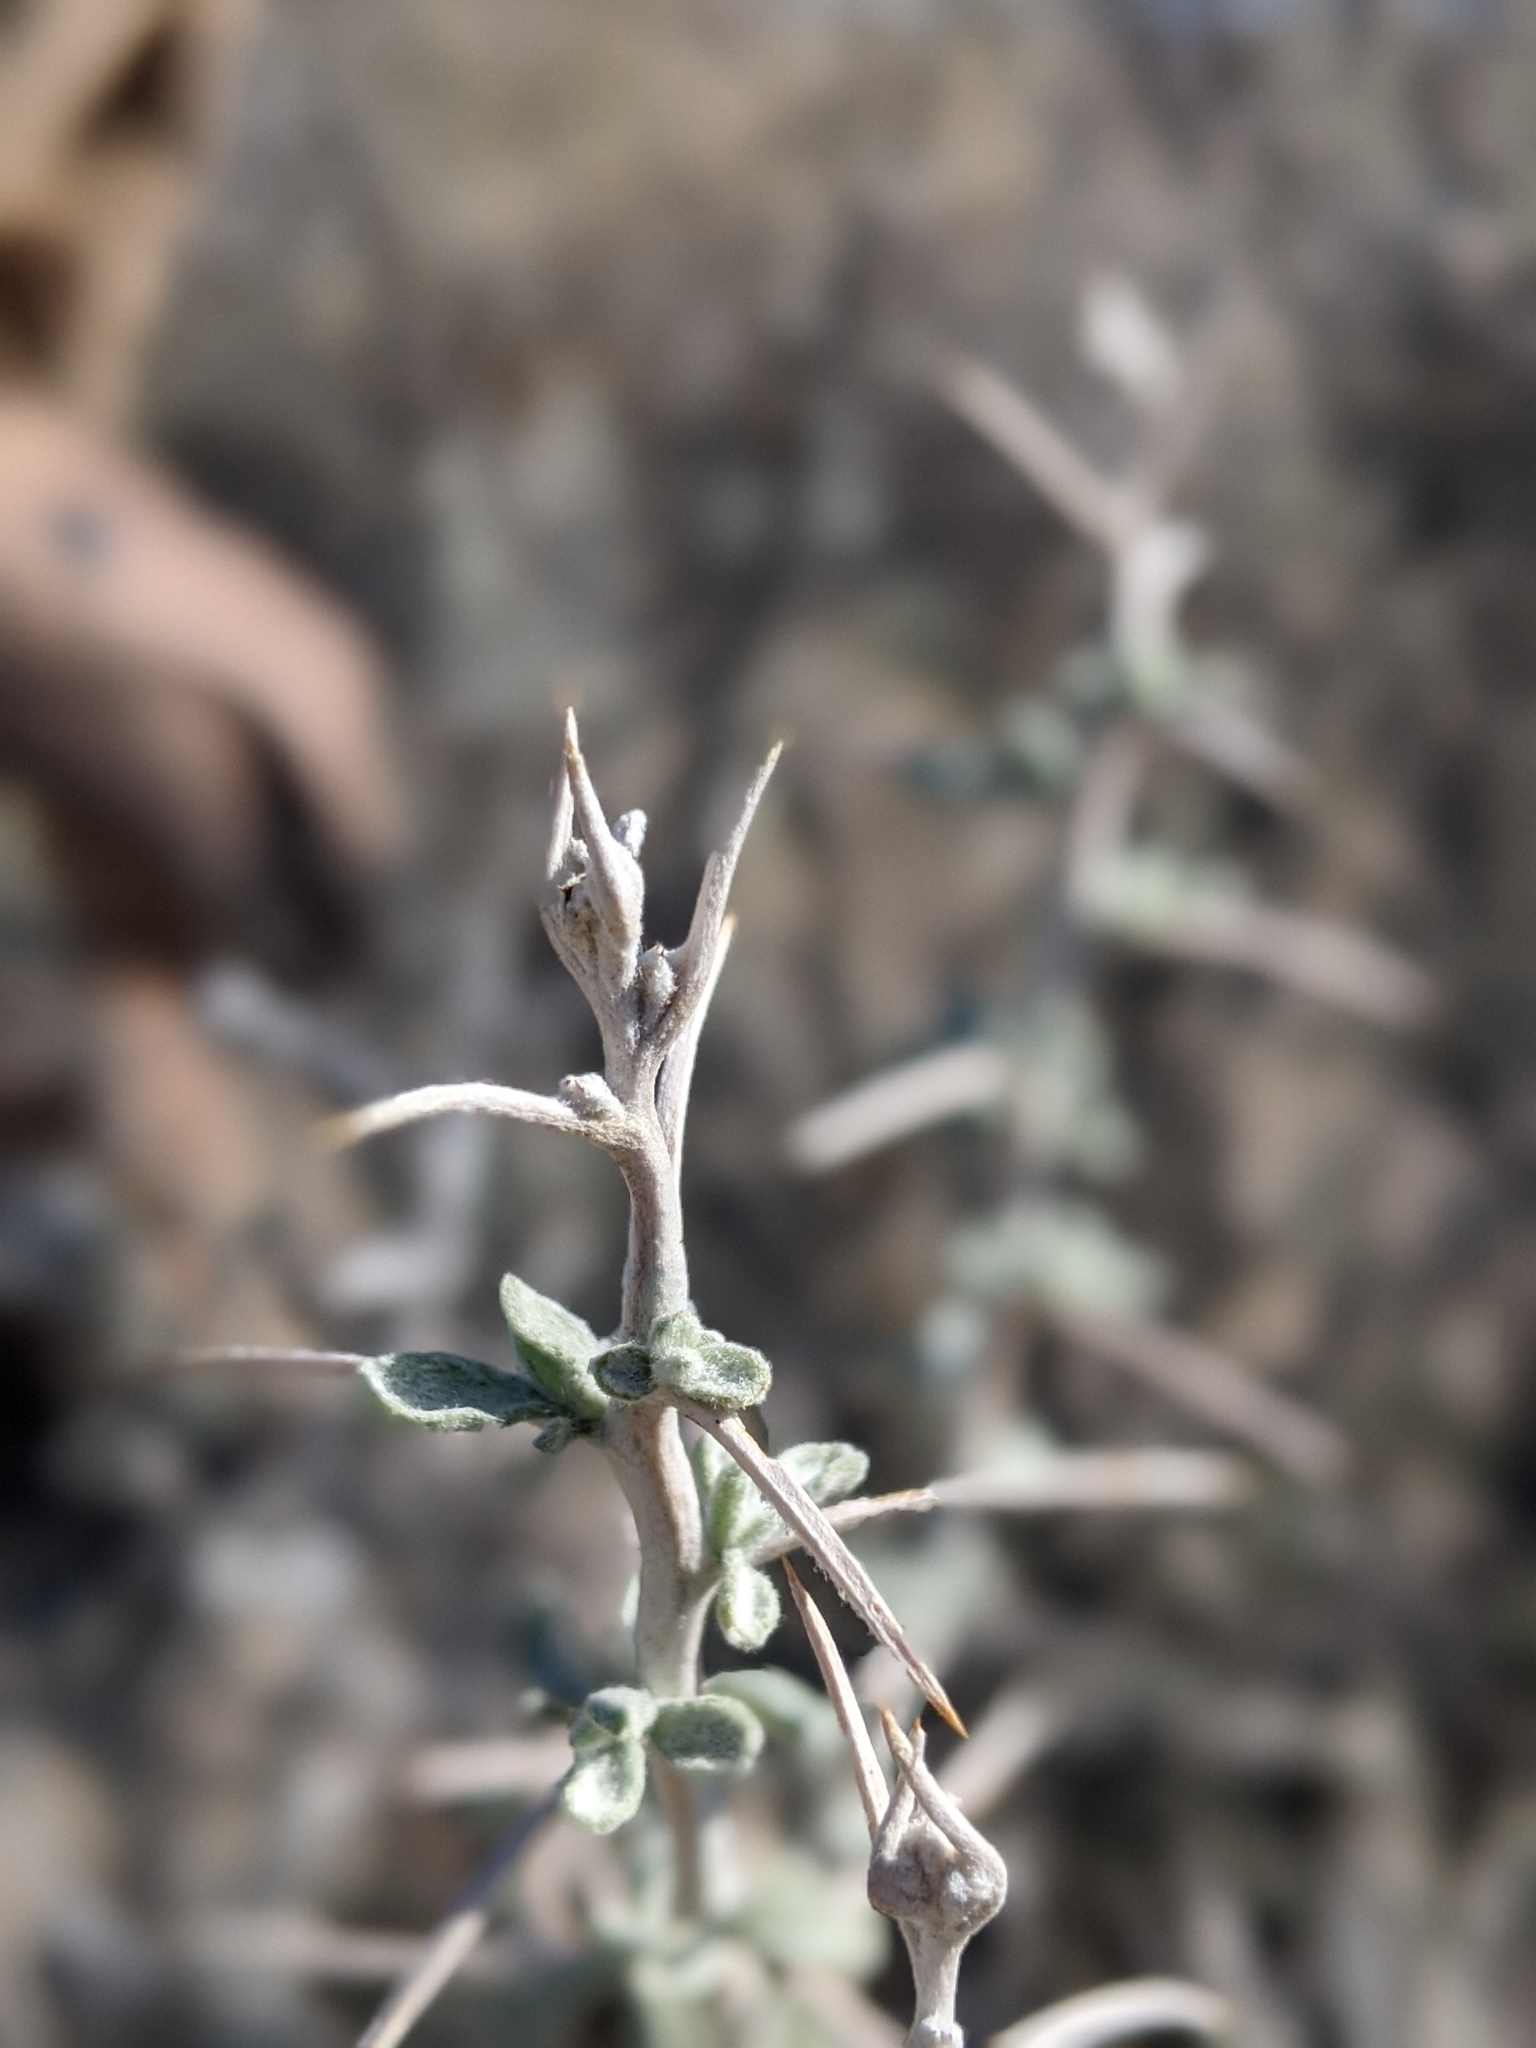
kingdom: Plantae
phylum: Tracheophyta
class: Magnoliopsida
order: Asterales
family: Asteraceae
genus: Tetradymia
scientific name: Tetradymia stenolepis
